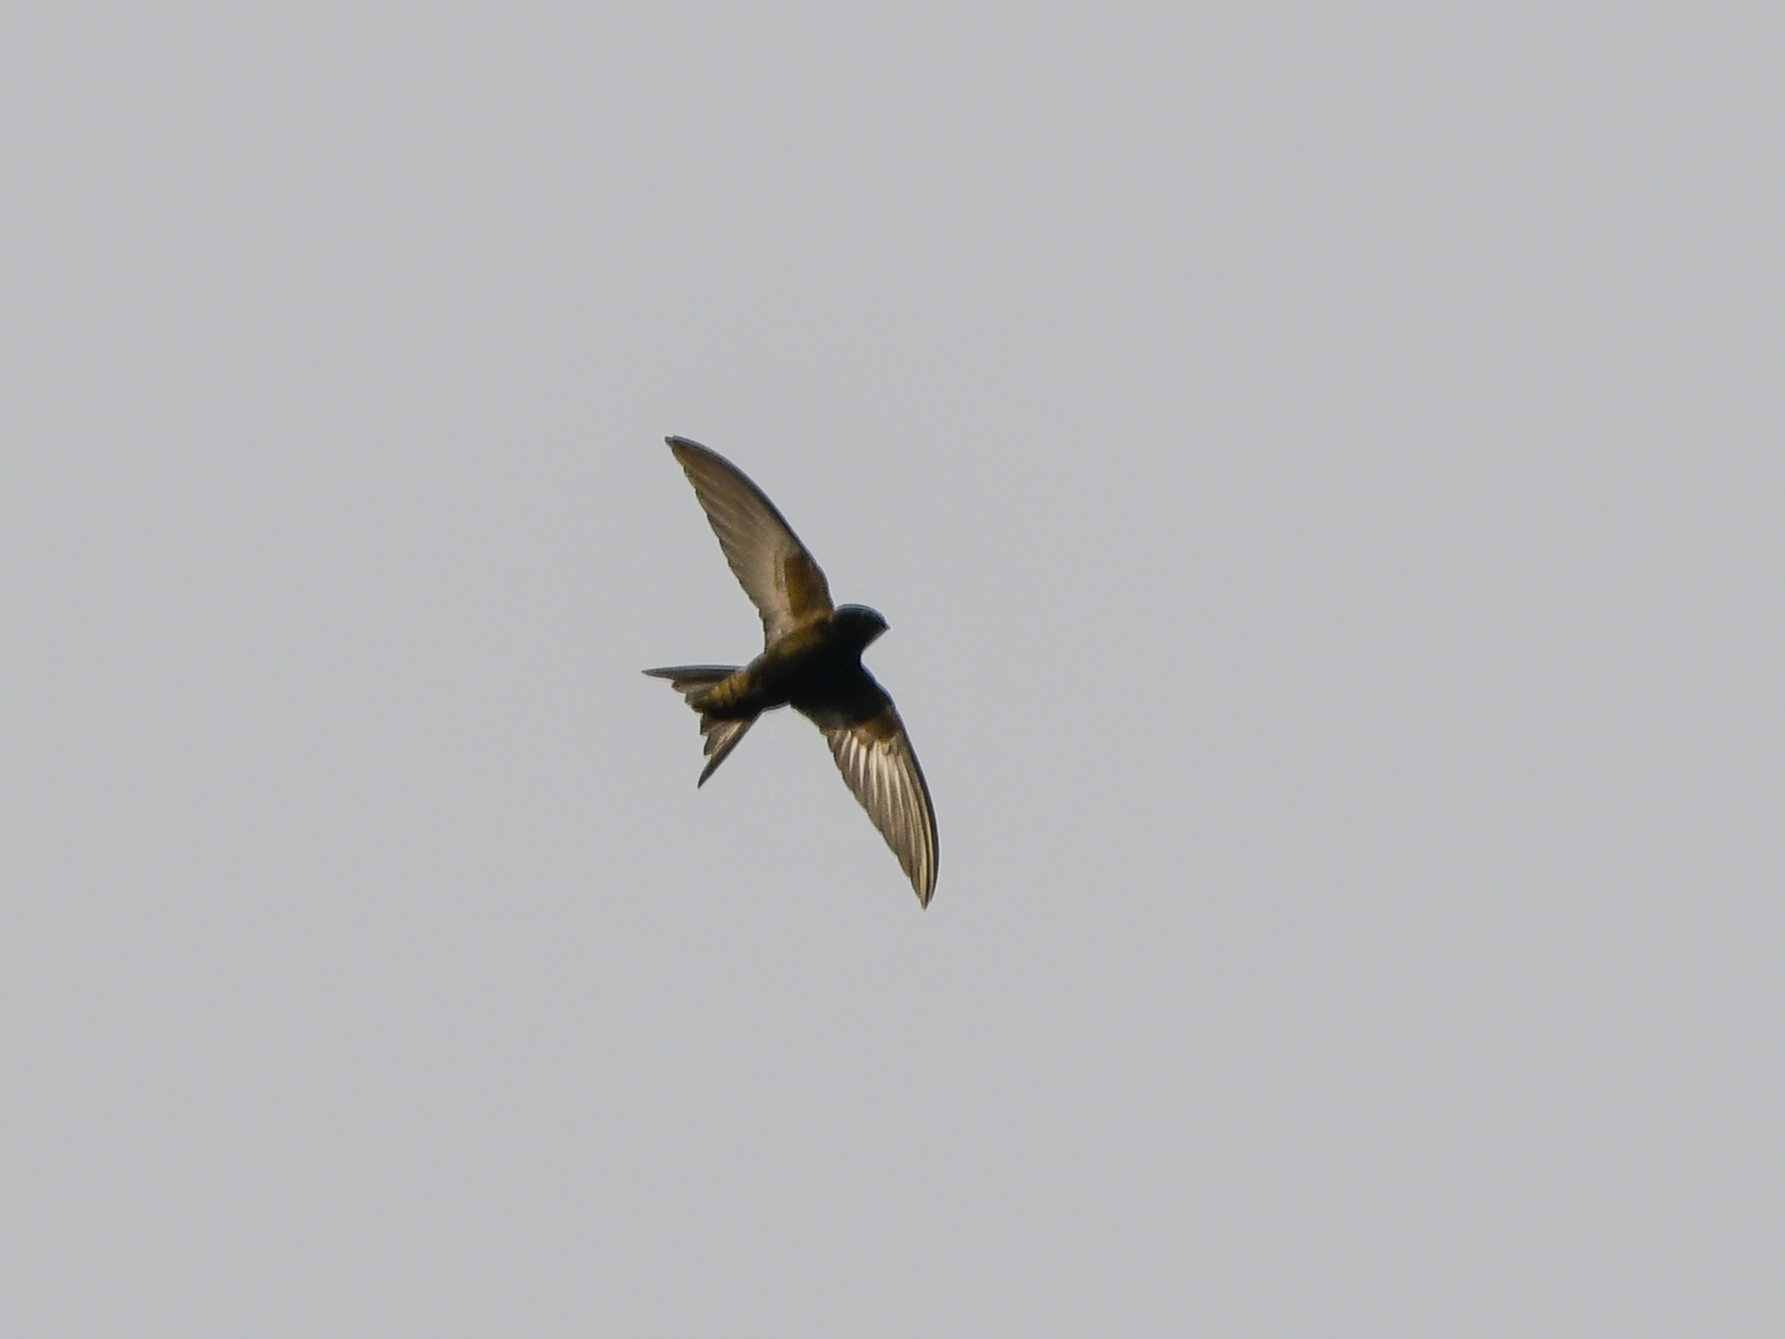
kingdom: Animalia
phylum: Chordata
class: Aves
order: Apodiformes
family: Apodidae
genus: Apus
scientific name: Apus apus
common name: Common swift
